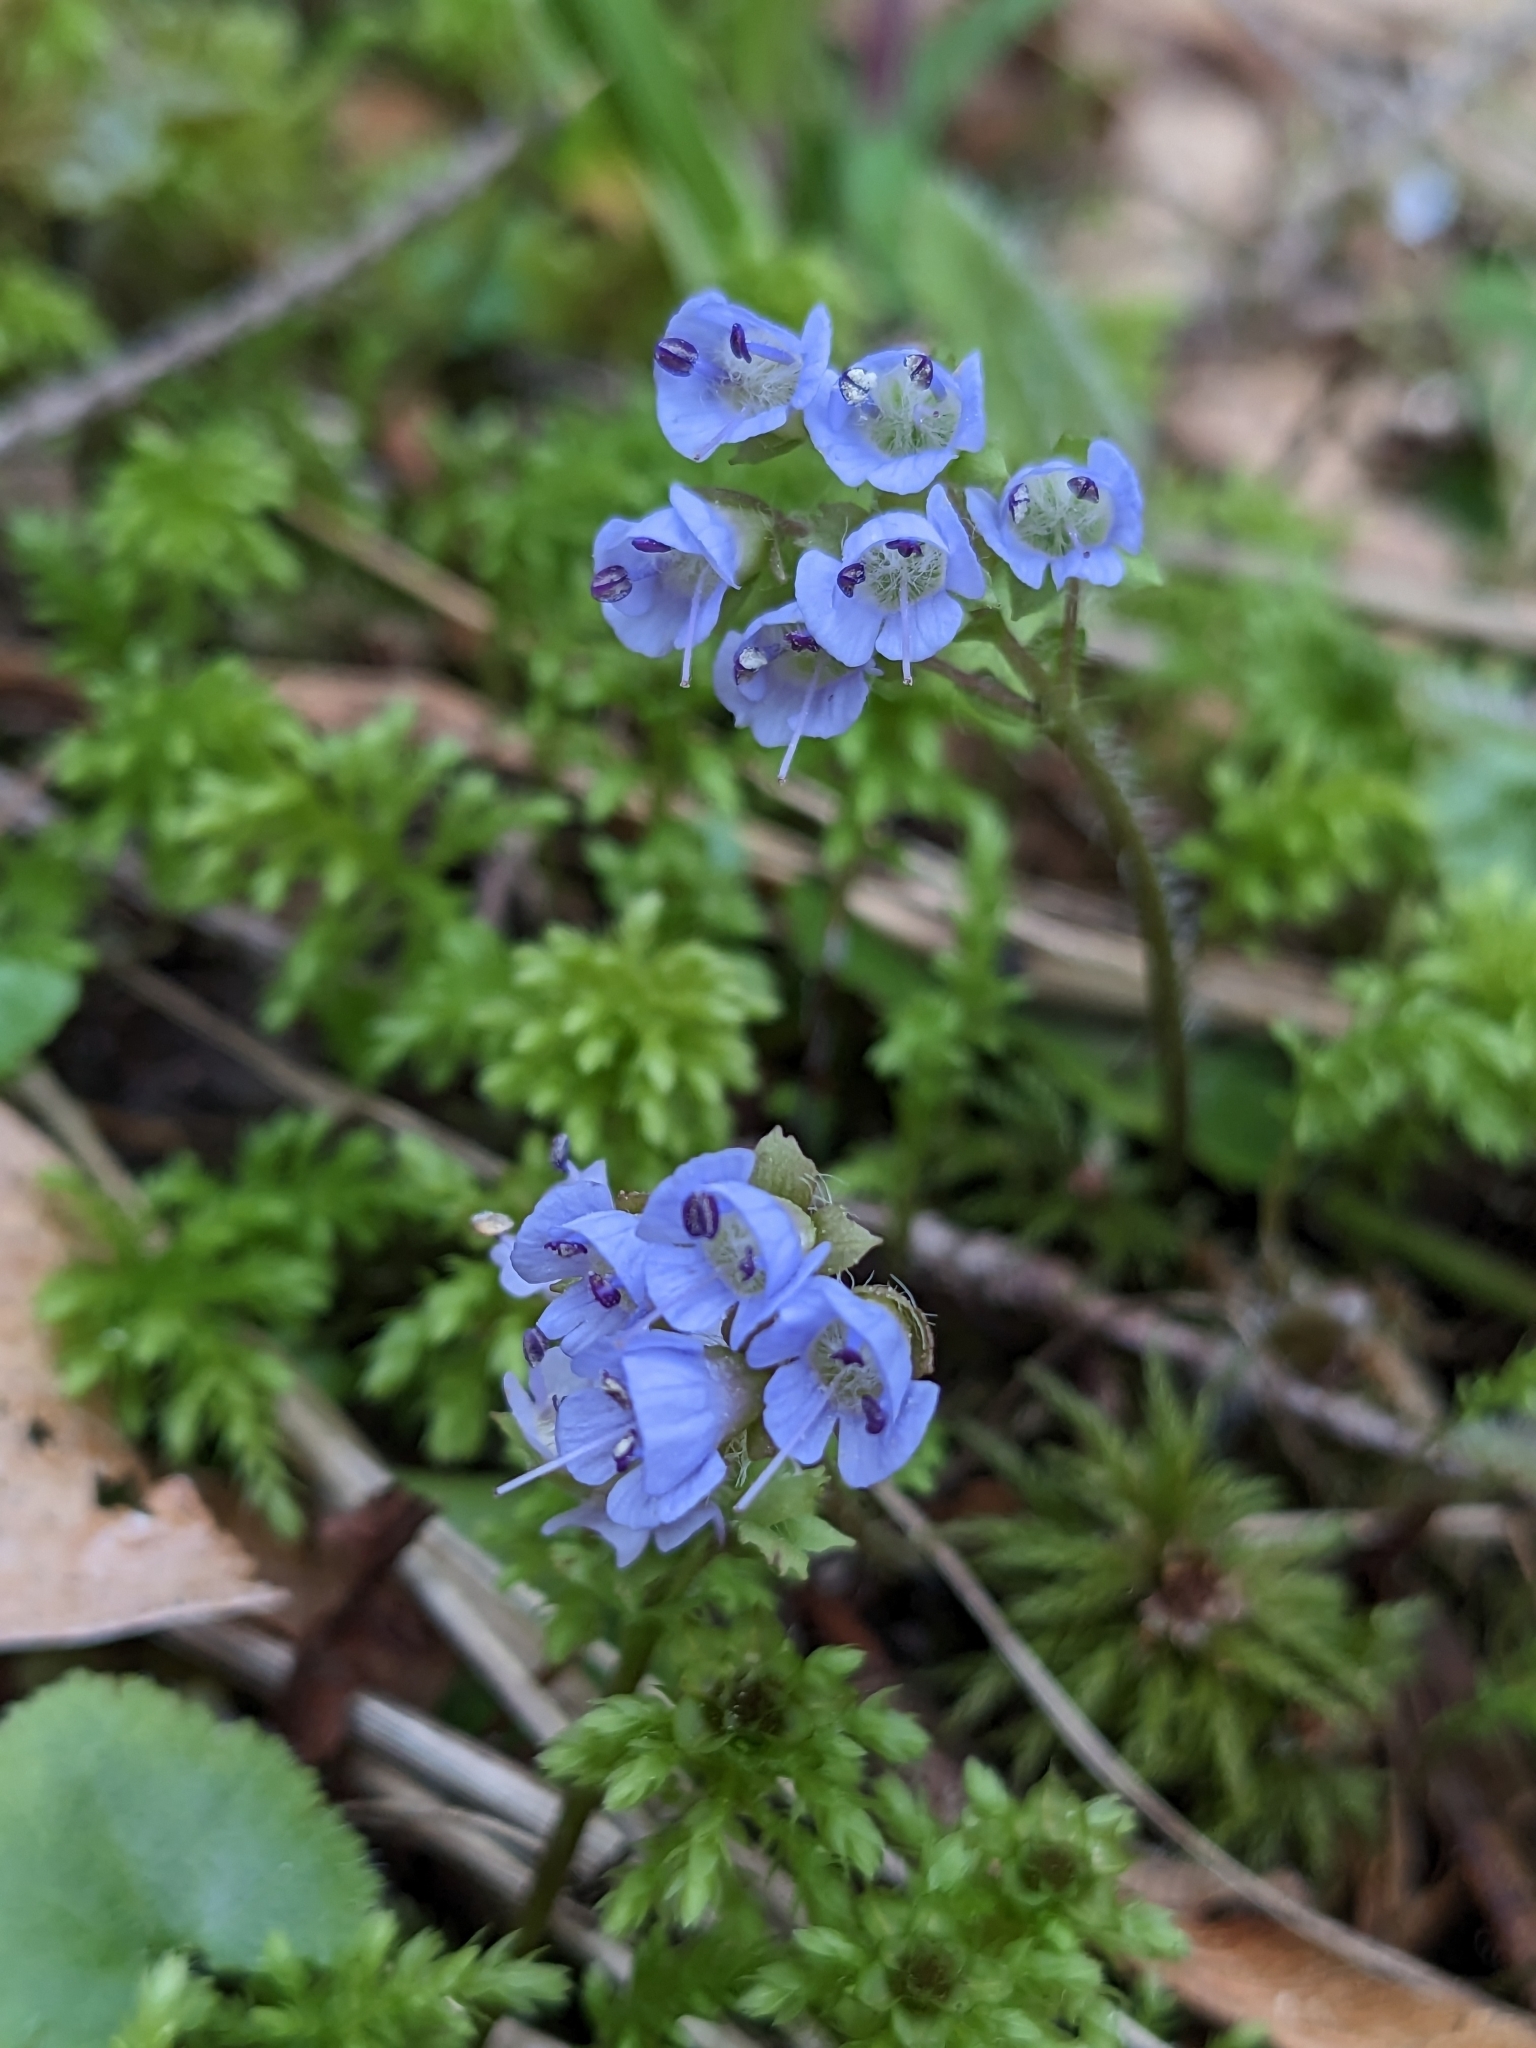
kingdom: Plantae
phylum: Tracheophyta
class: Magnoliopsida
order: Lamiales
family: Plantaginaceae
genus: Synthyris
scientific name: Synthyris reniformis
